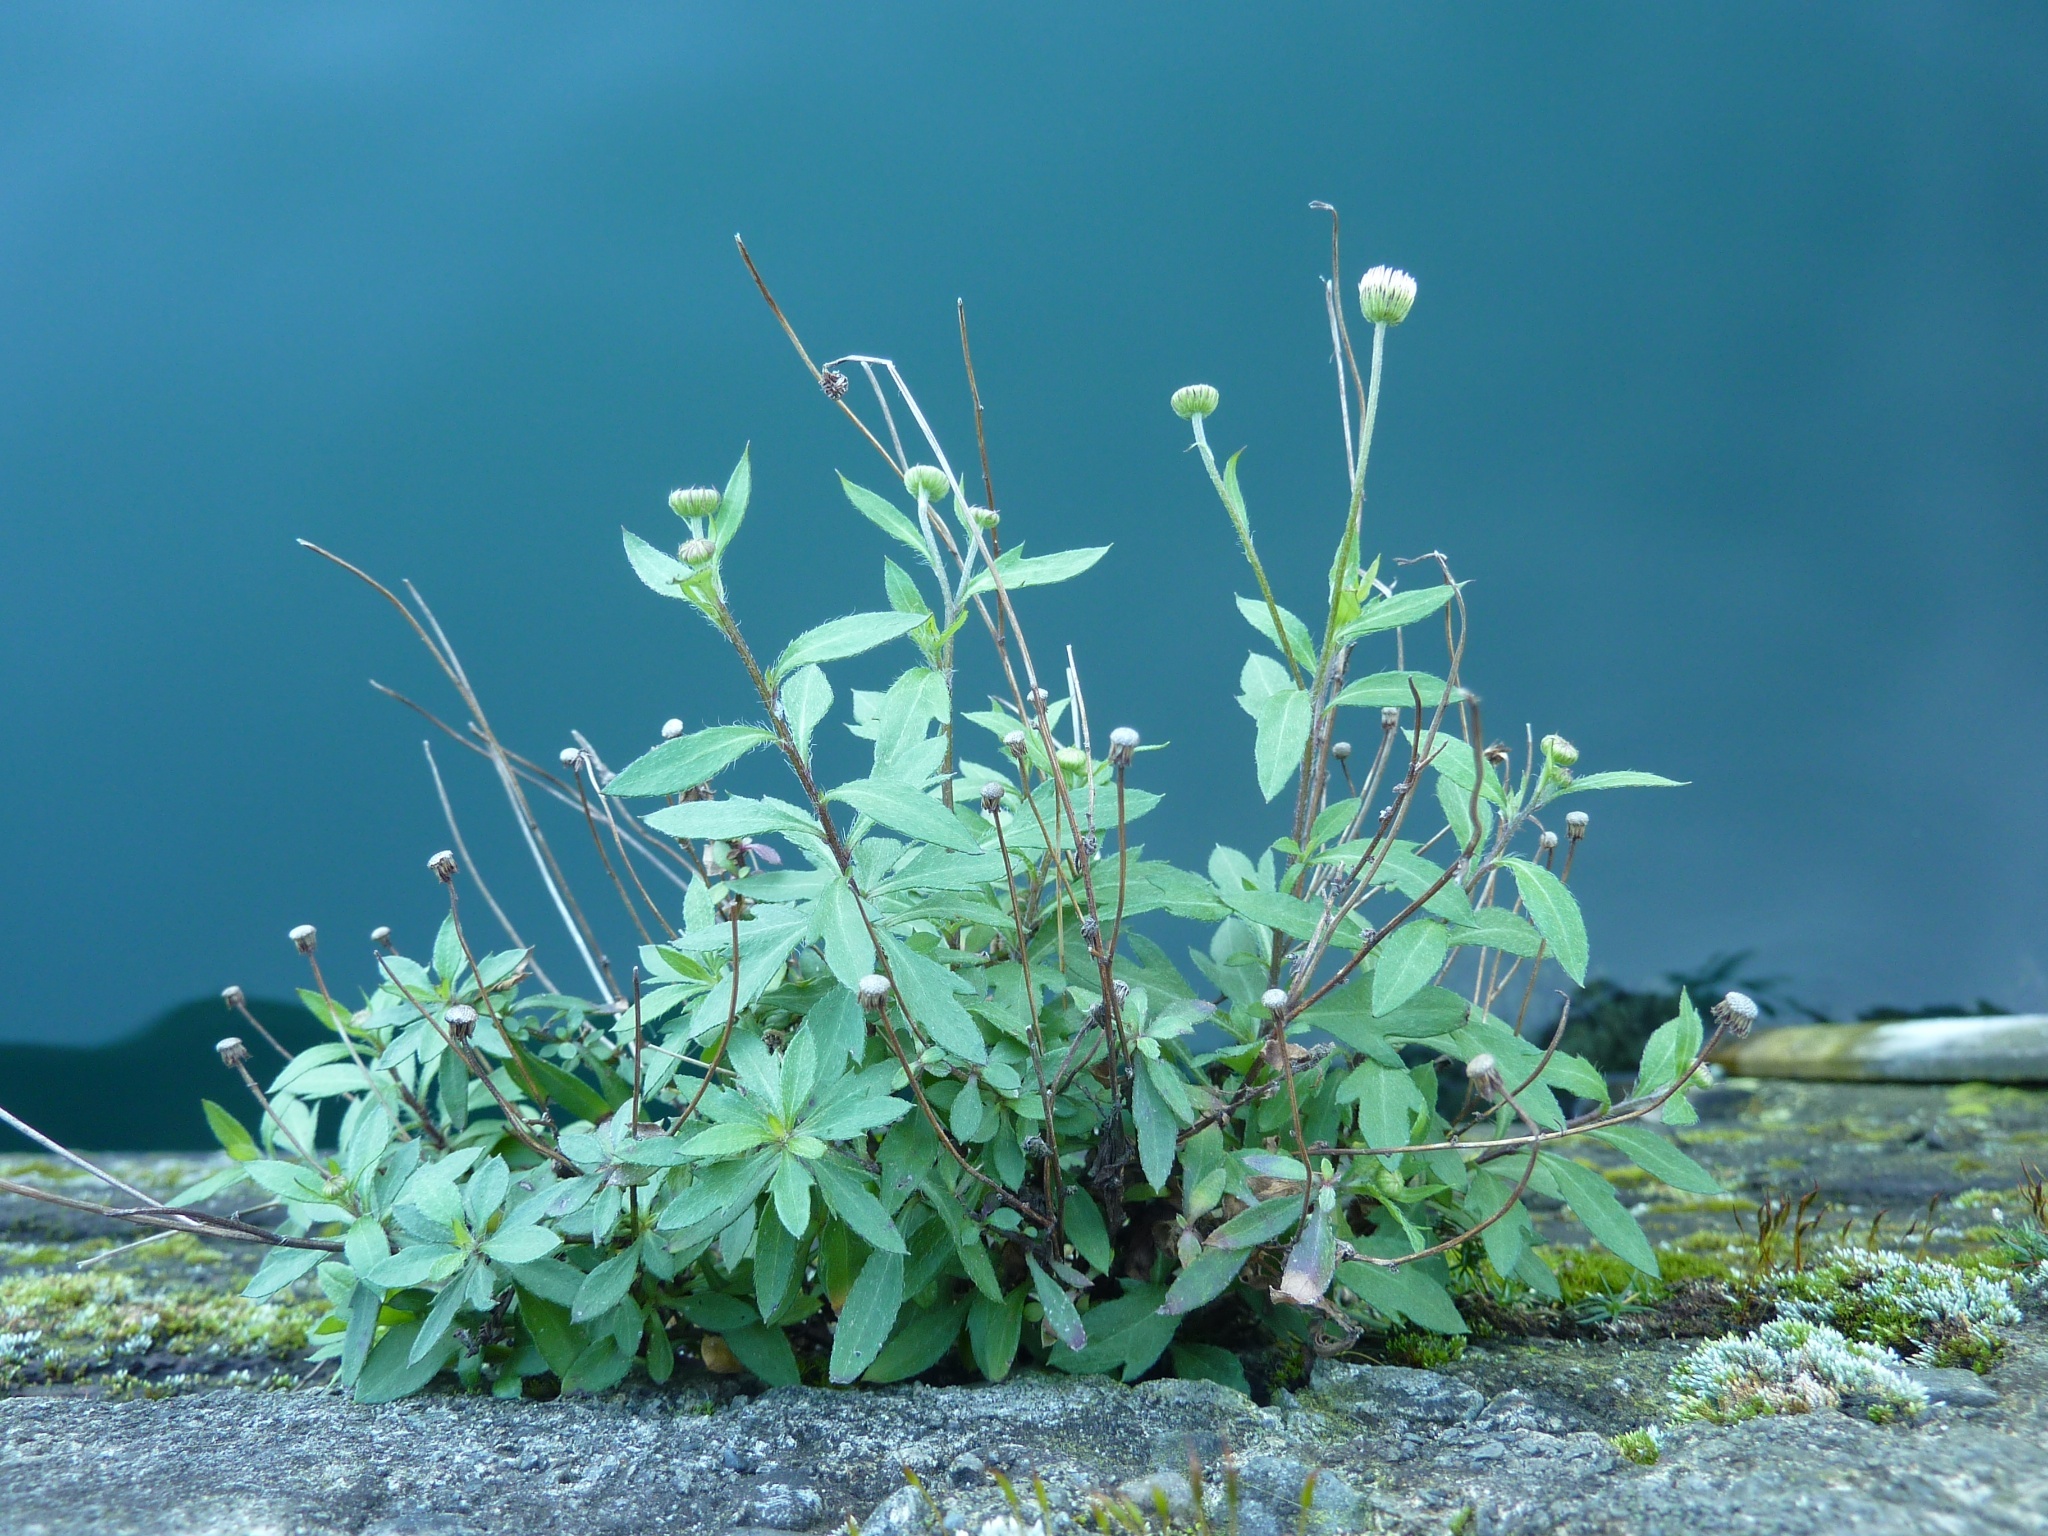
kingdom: Plantae
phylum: Tracheophyta
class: Magnoliopsida
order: Asterales
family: Asteraceae
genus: Erigeron
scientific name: Erigeron karvinskianus
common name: Mexican fleabane
